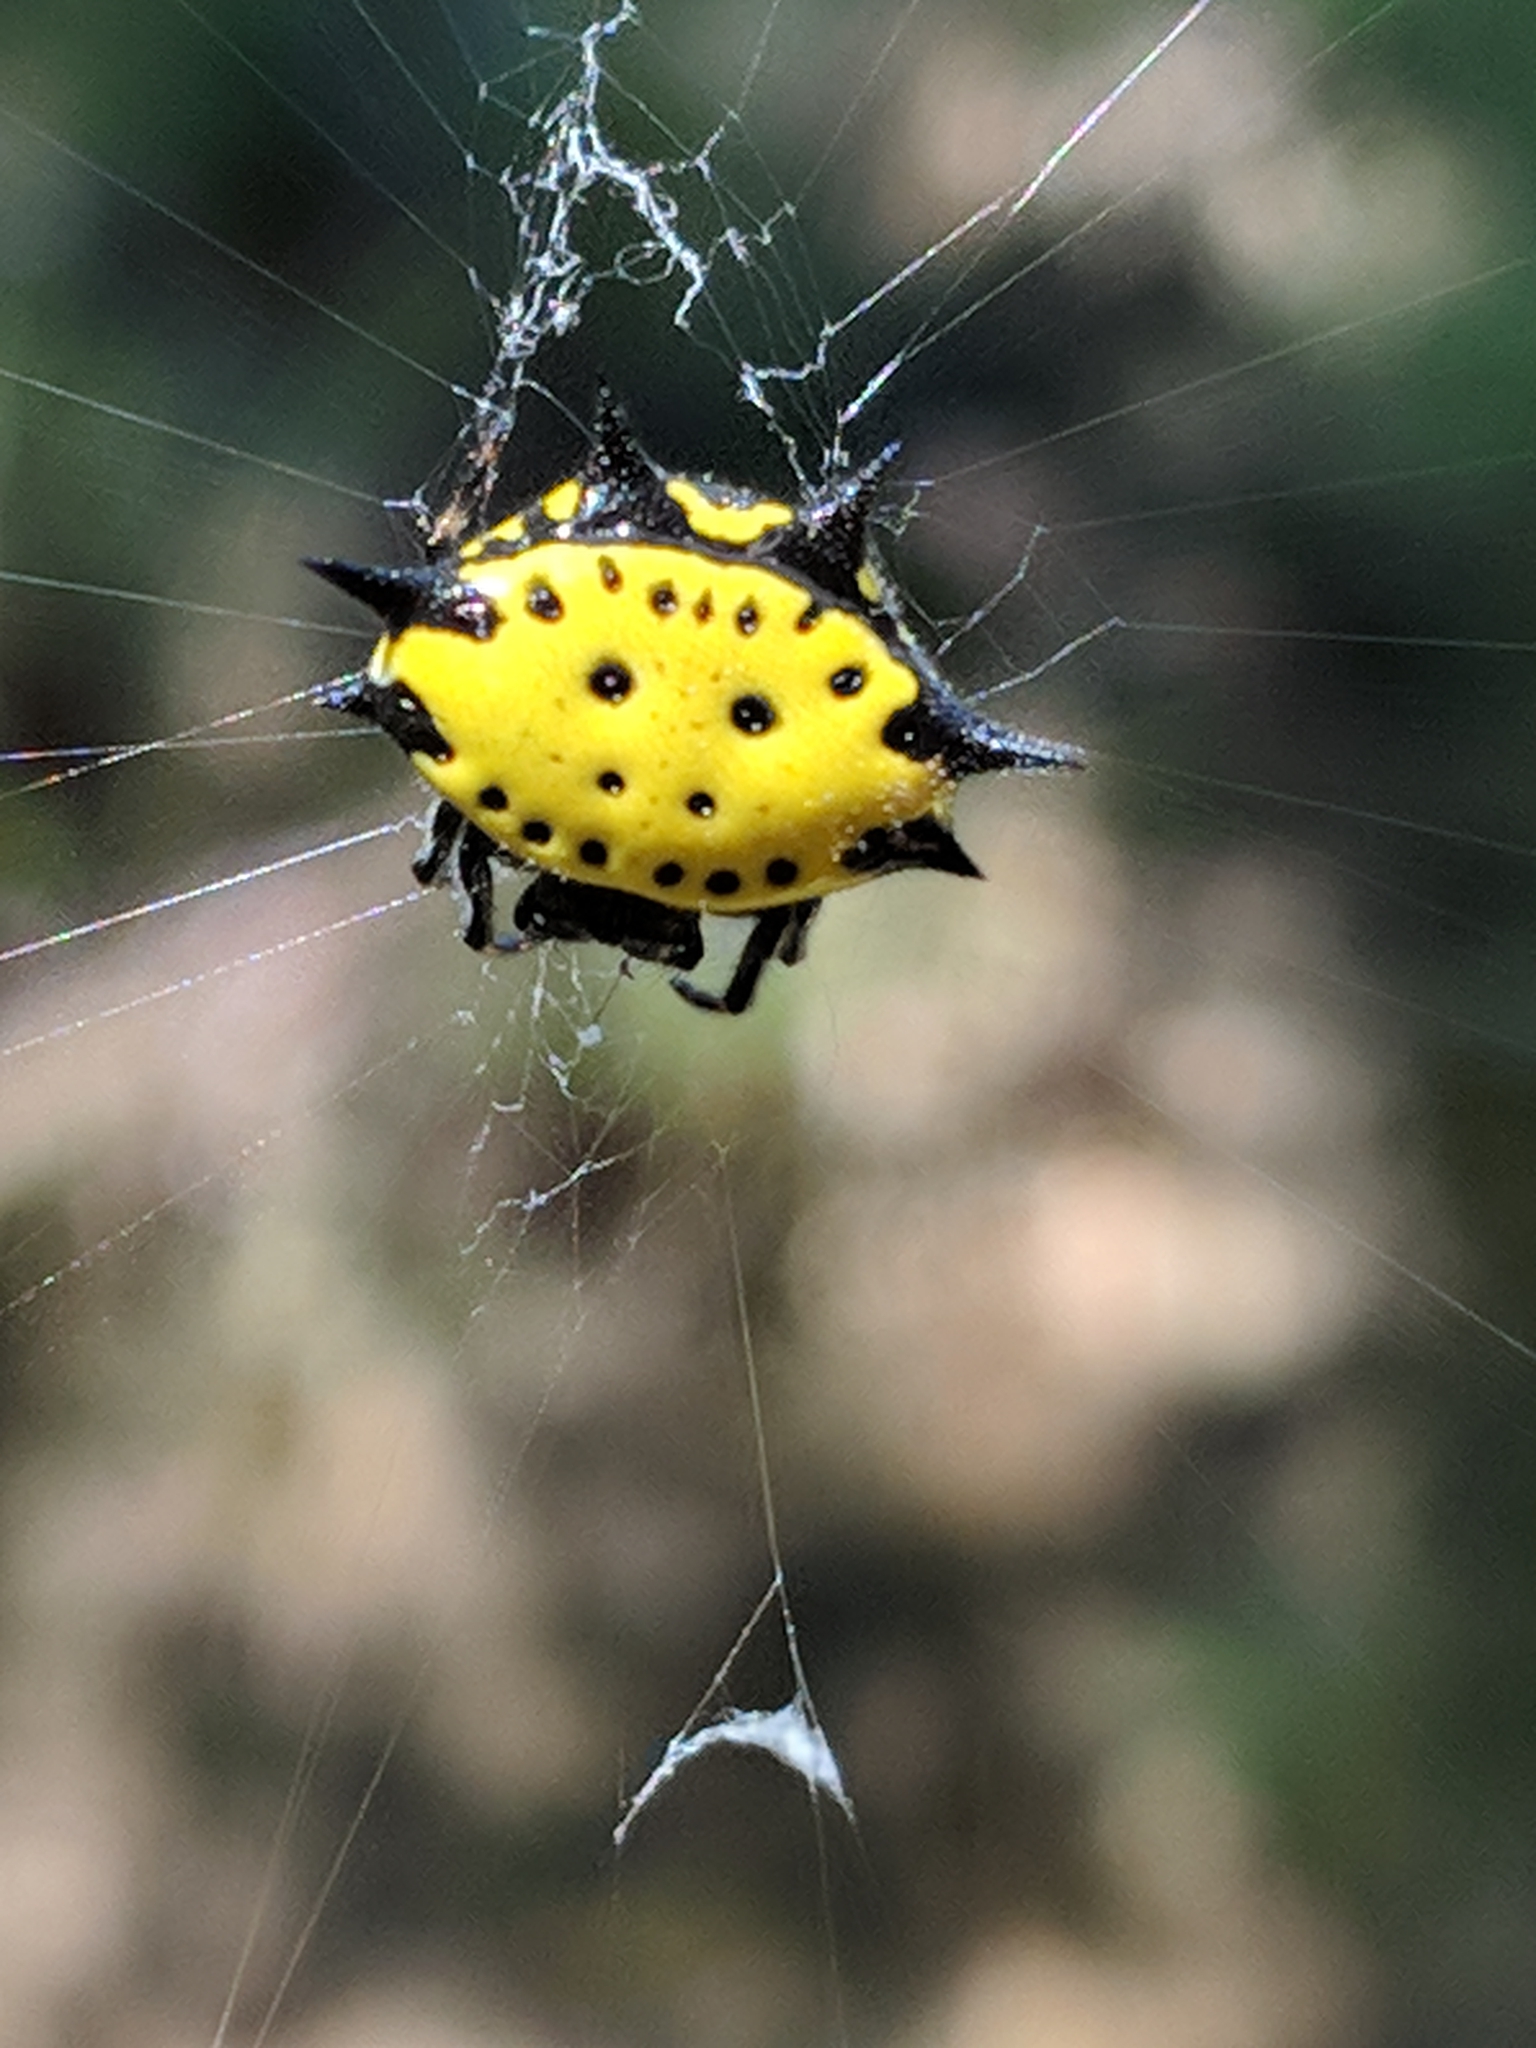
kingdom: Animalia
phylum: Arthropoda
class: Arachnida
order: Araneae
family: Araneidae
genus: Gasteracantha
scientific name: Gasteracantha cancriformis
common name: Orb weavers
